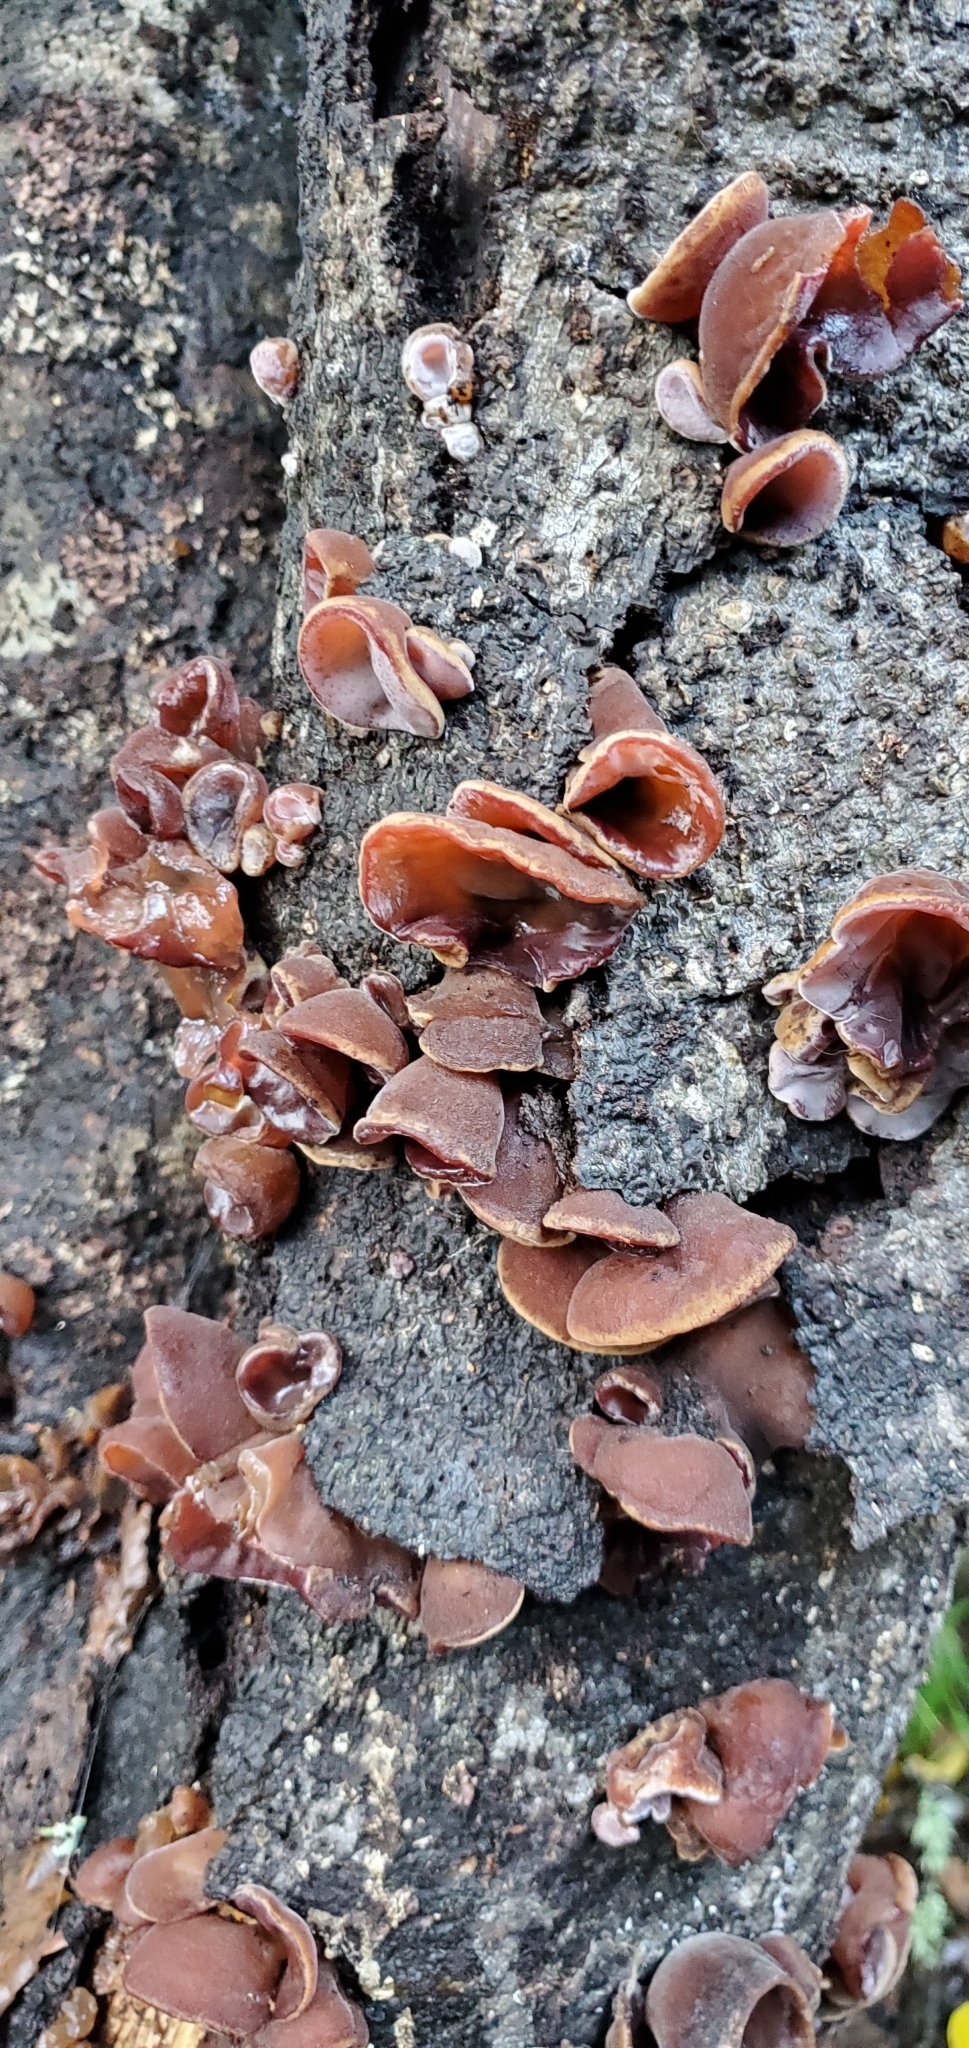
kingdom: Fungi
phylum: Basidiomycota
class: Agaricomycetes
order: Auriculariales
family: Auriculariaceae
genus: Auricularia
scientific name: Auricularia cornea
